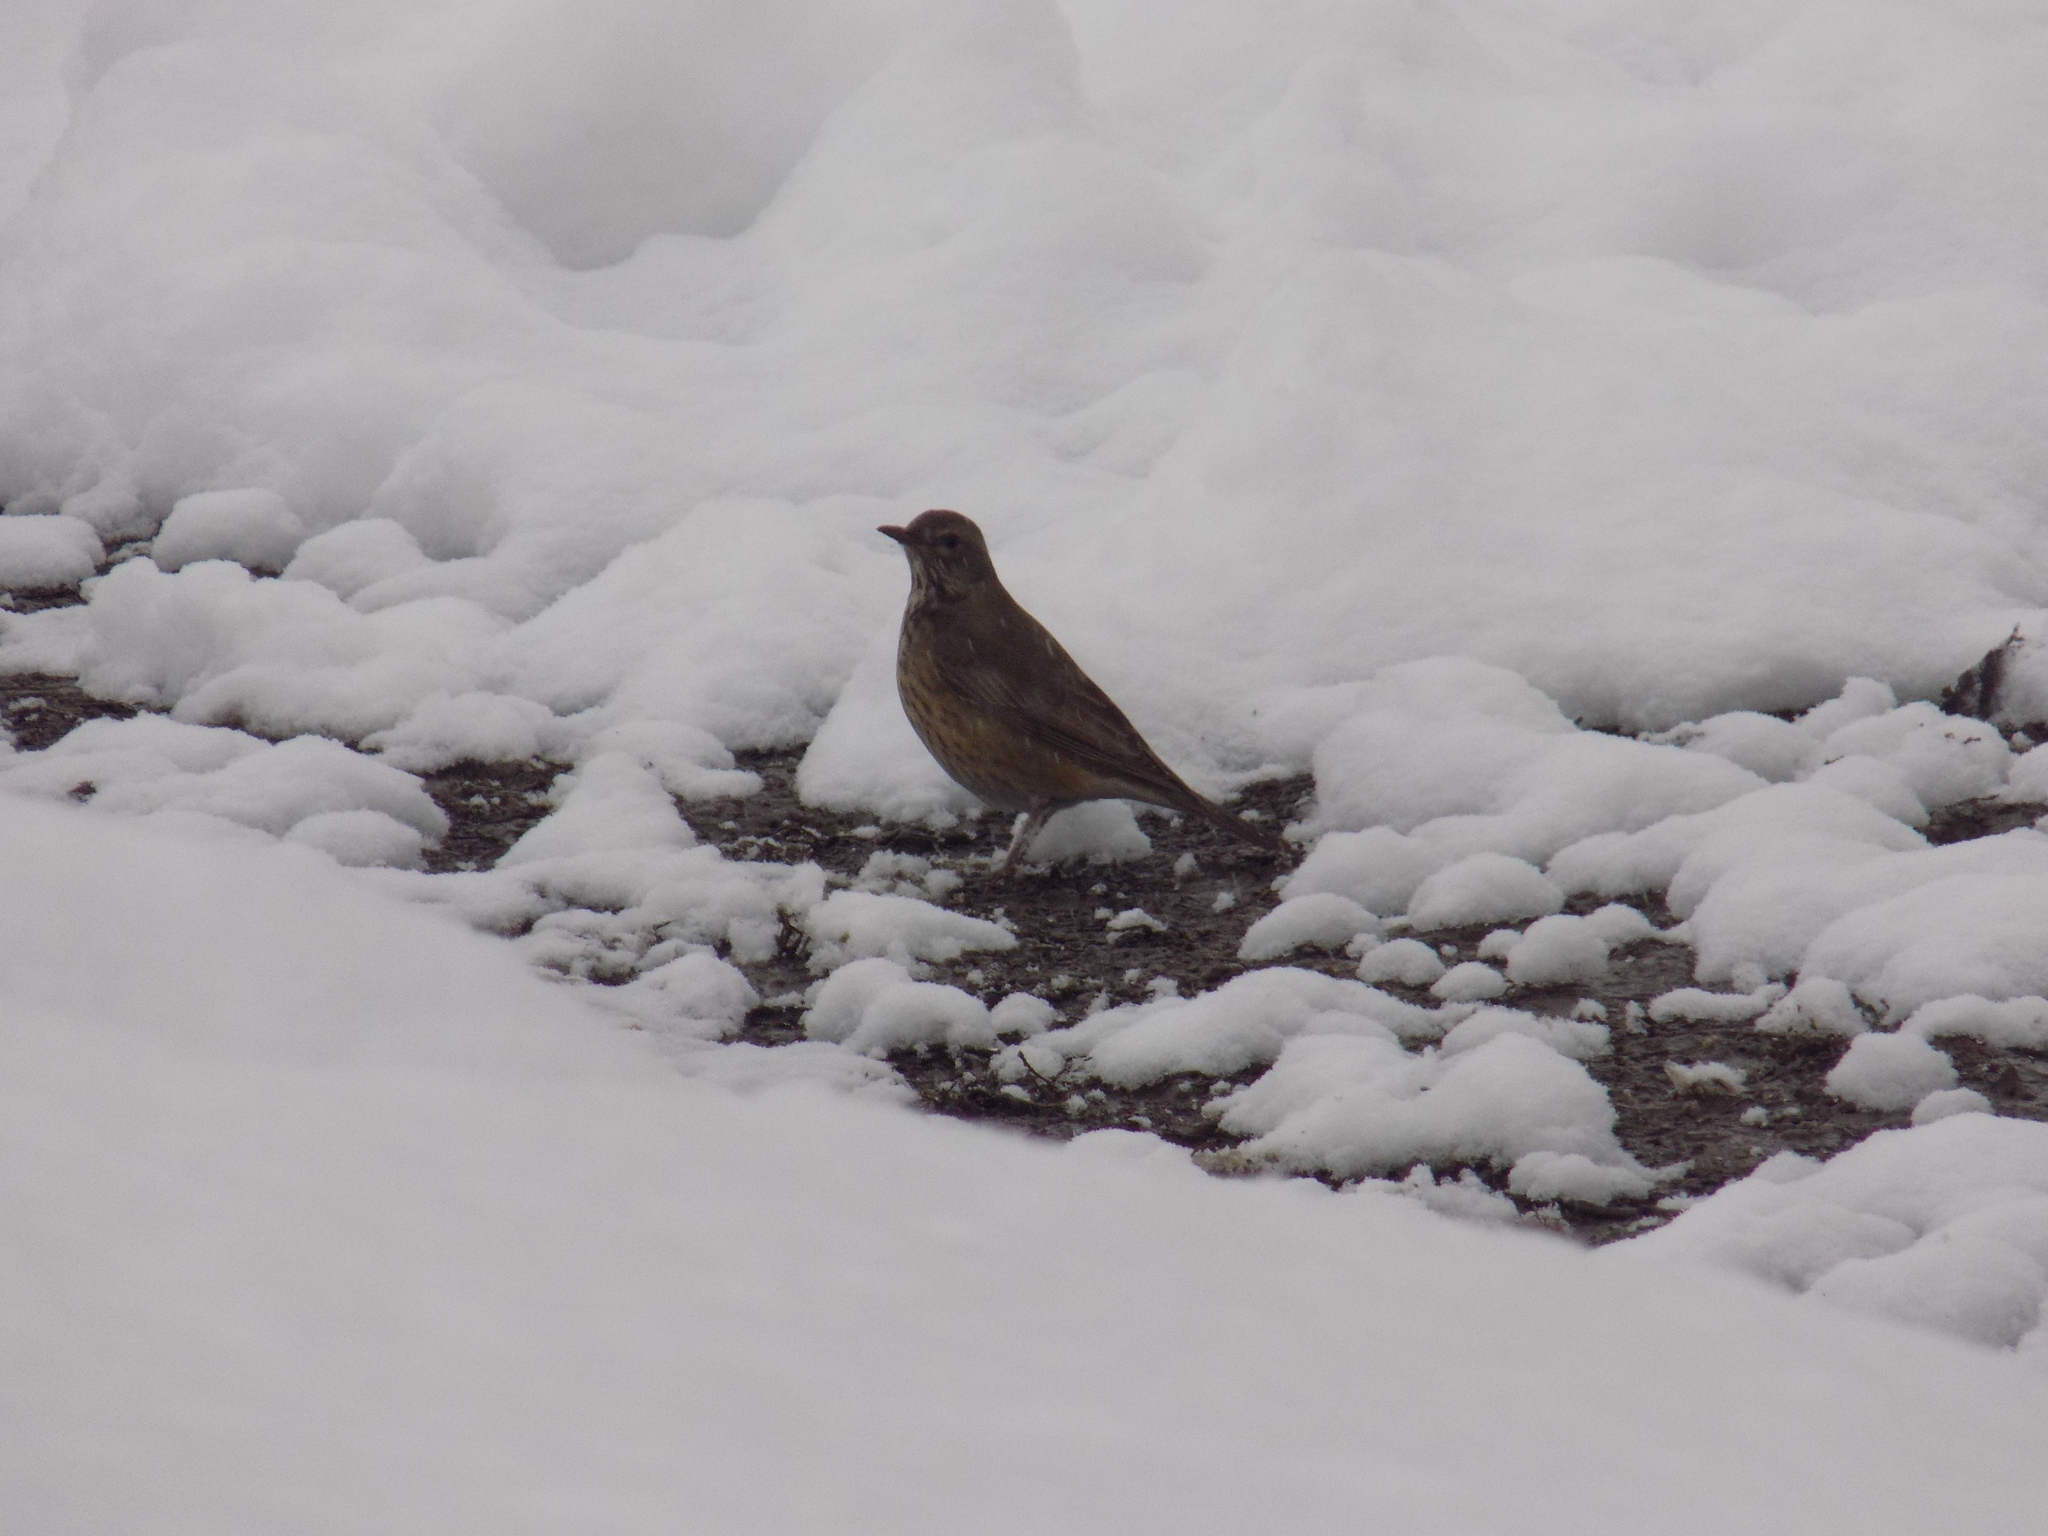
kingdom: Animalia
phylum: Chordata
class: Aves
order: Passeriformes
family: Turdidae
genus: Turdus
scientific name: Turdus atrogularis
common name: Black-throated thrush
